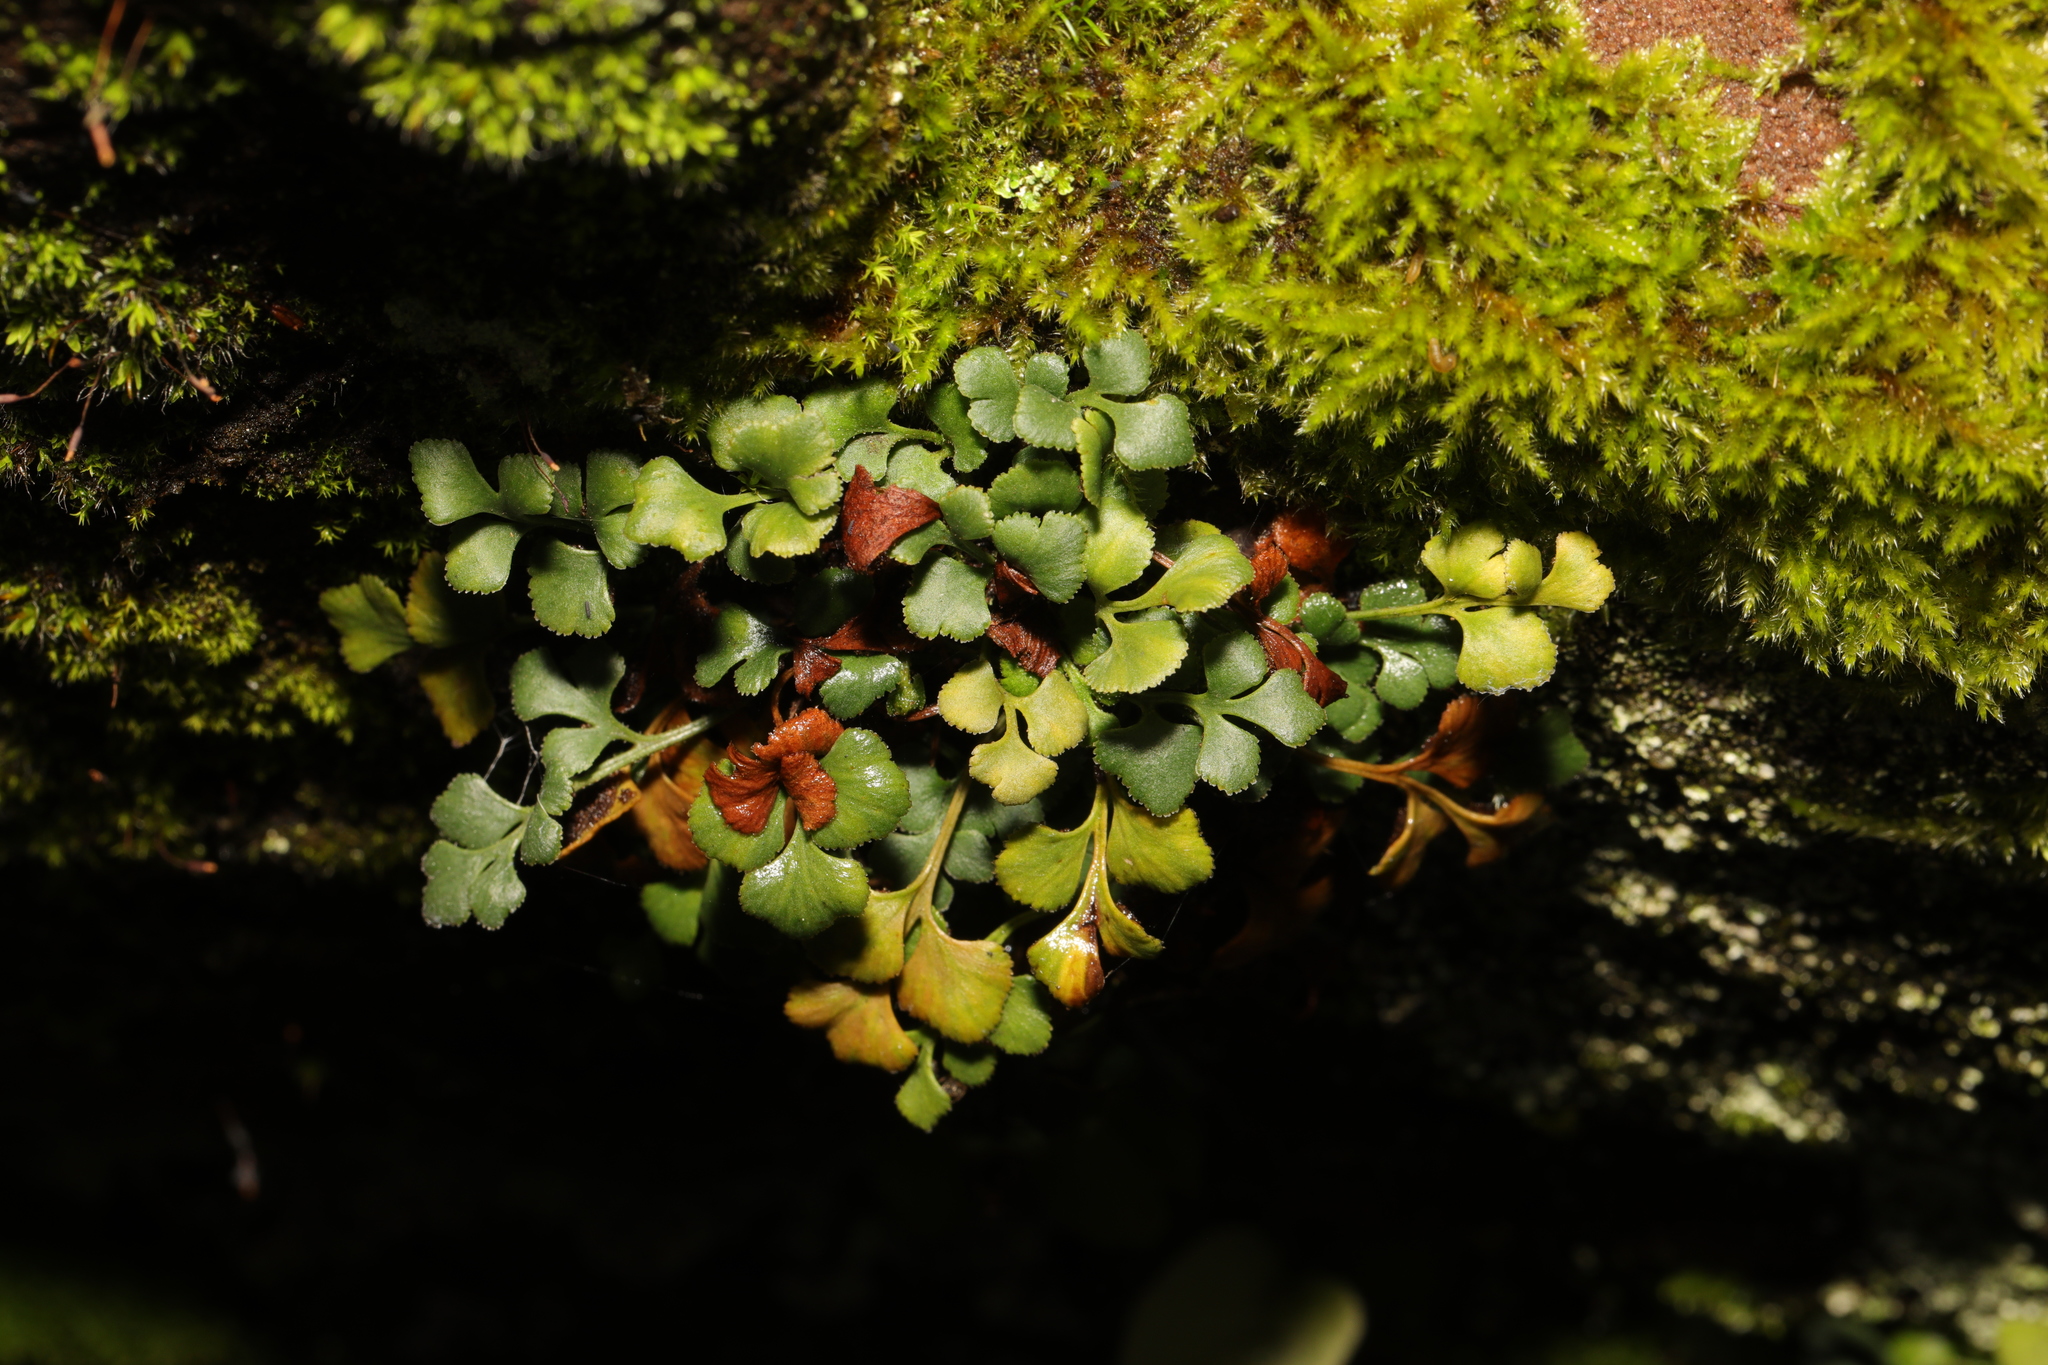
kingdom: Plantae
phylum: Tracheophyta
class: Polypodiopsida
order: Polypodiales
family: Aspleniaceae
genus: Asplenium
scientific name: Asplenium ruta-muraria
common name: Wall-rue
